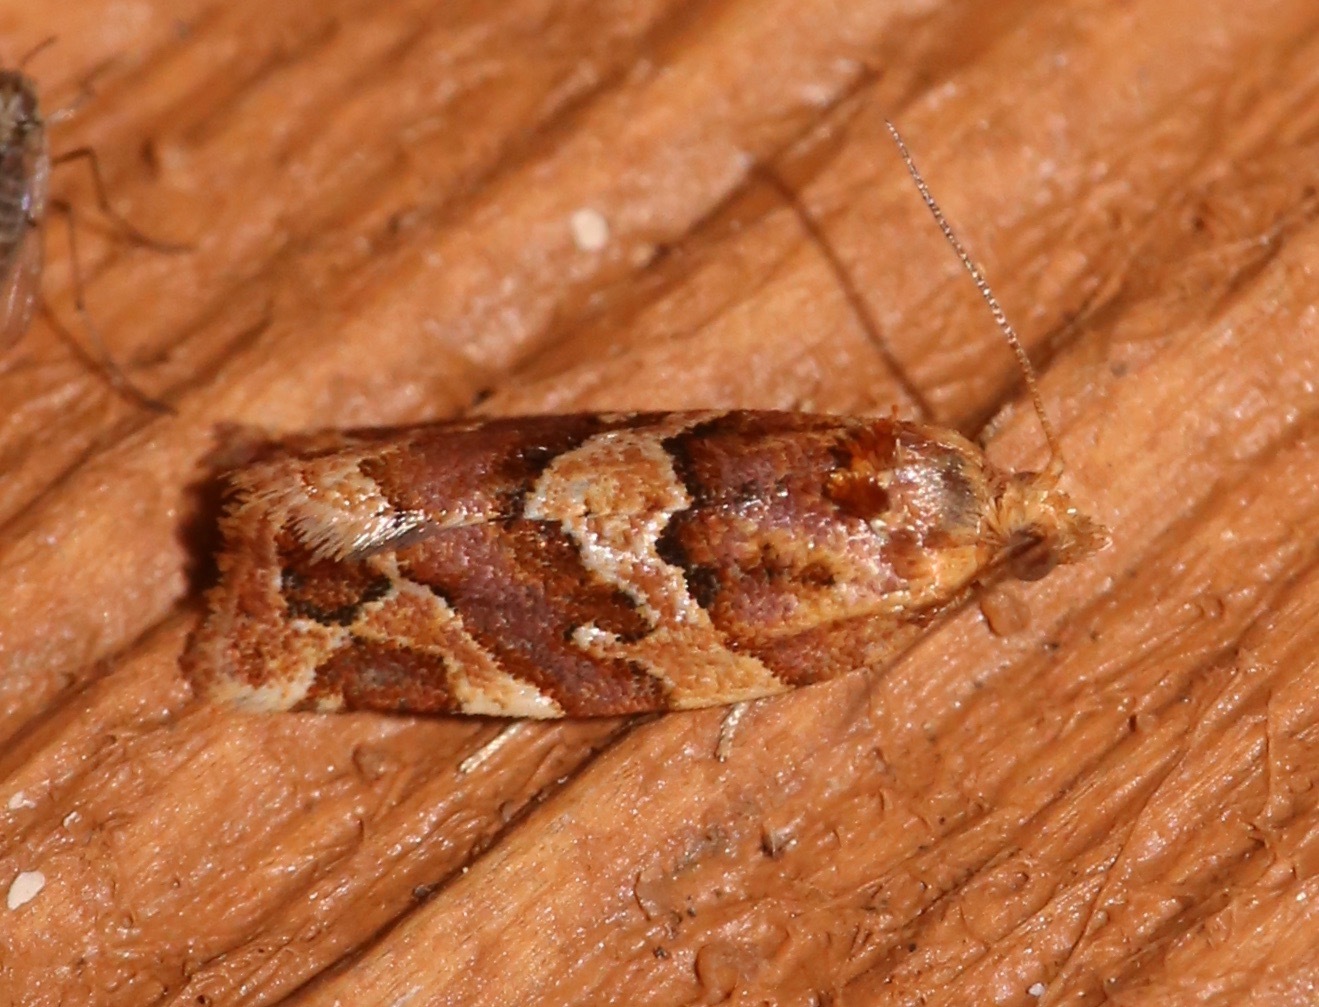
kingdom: Animalia
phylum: Arthropoda
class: Insecta
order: Lepidoptera
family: Tortricidae
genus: Argyrotaenia
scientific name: Argyrotaenia hodgesi
